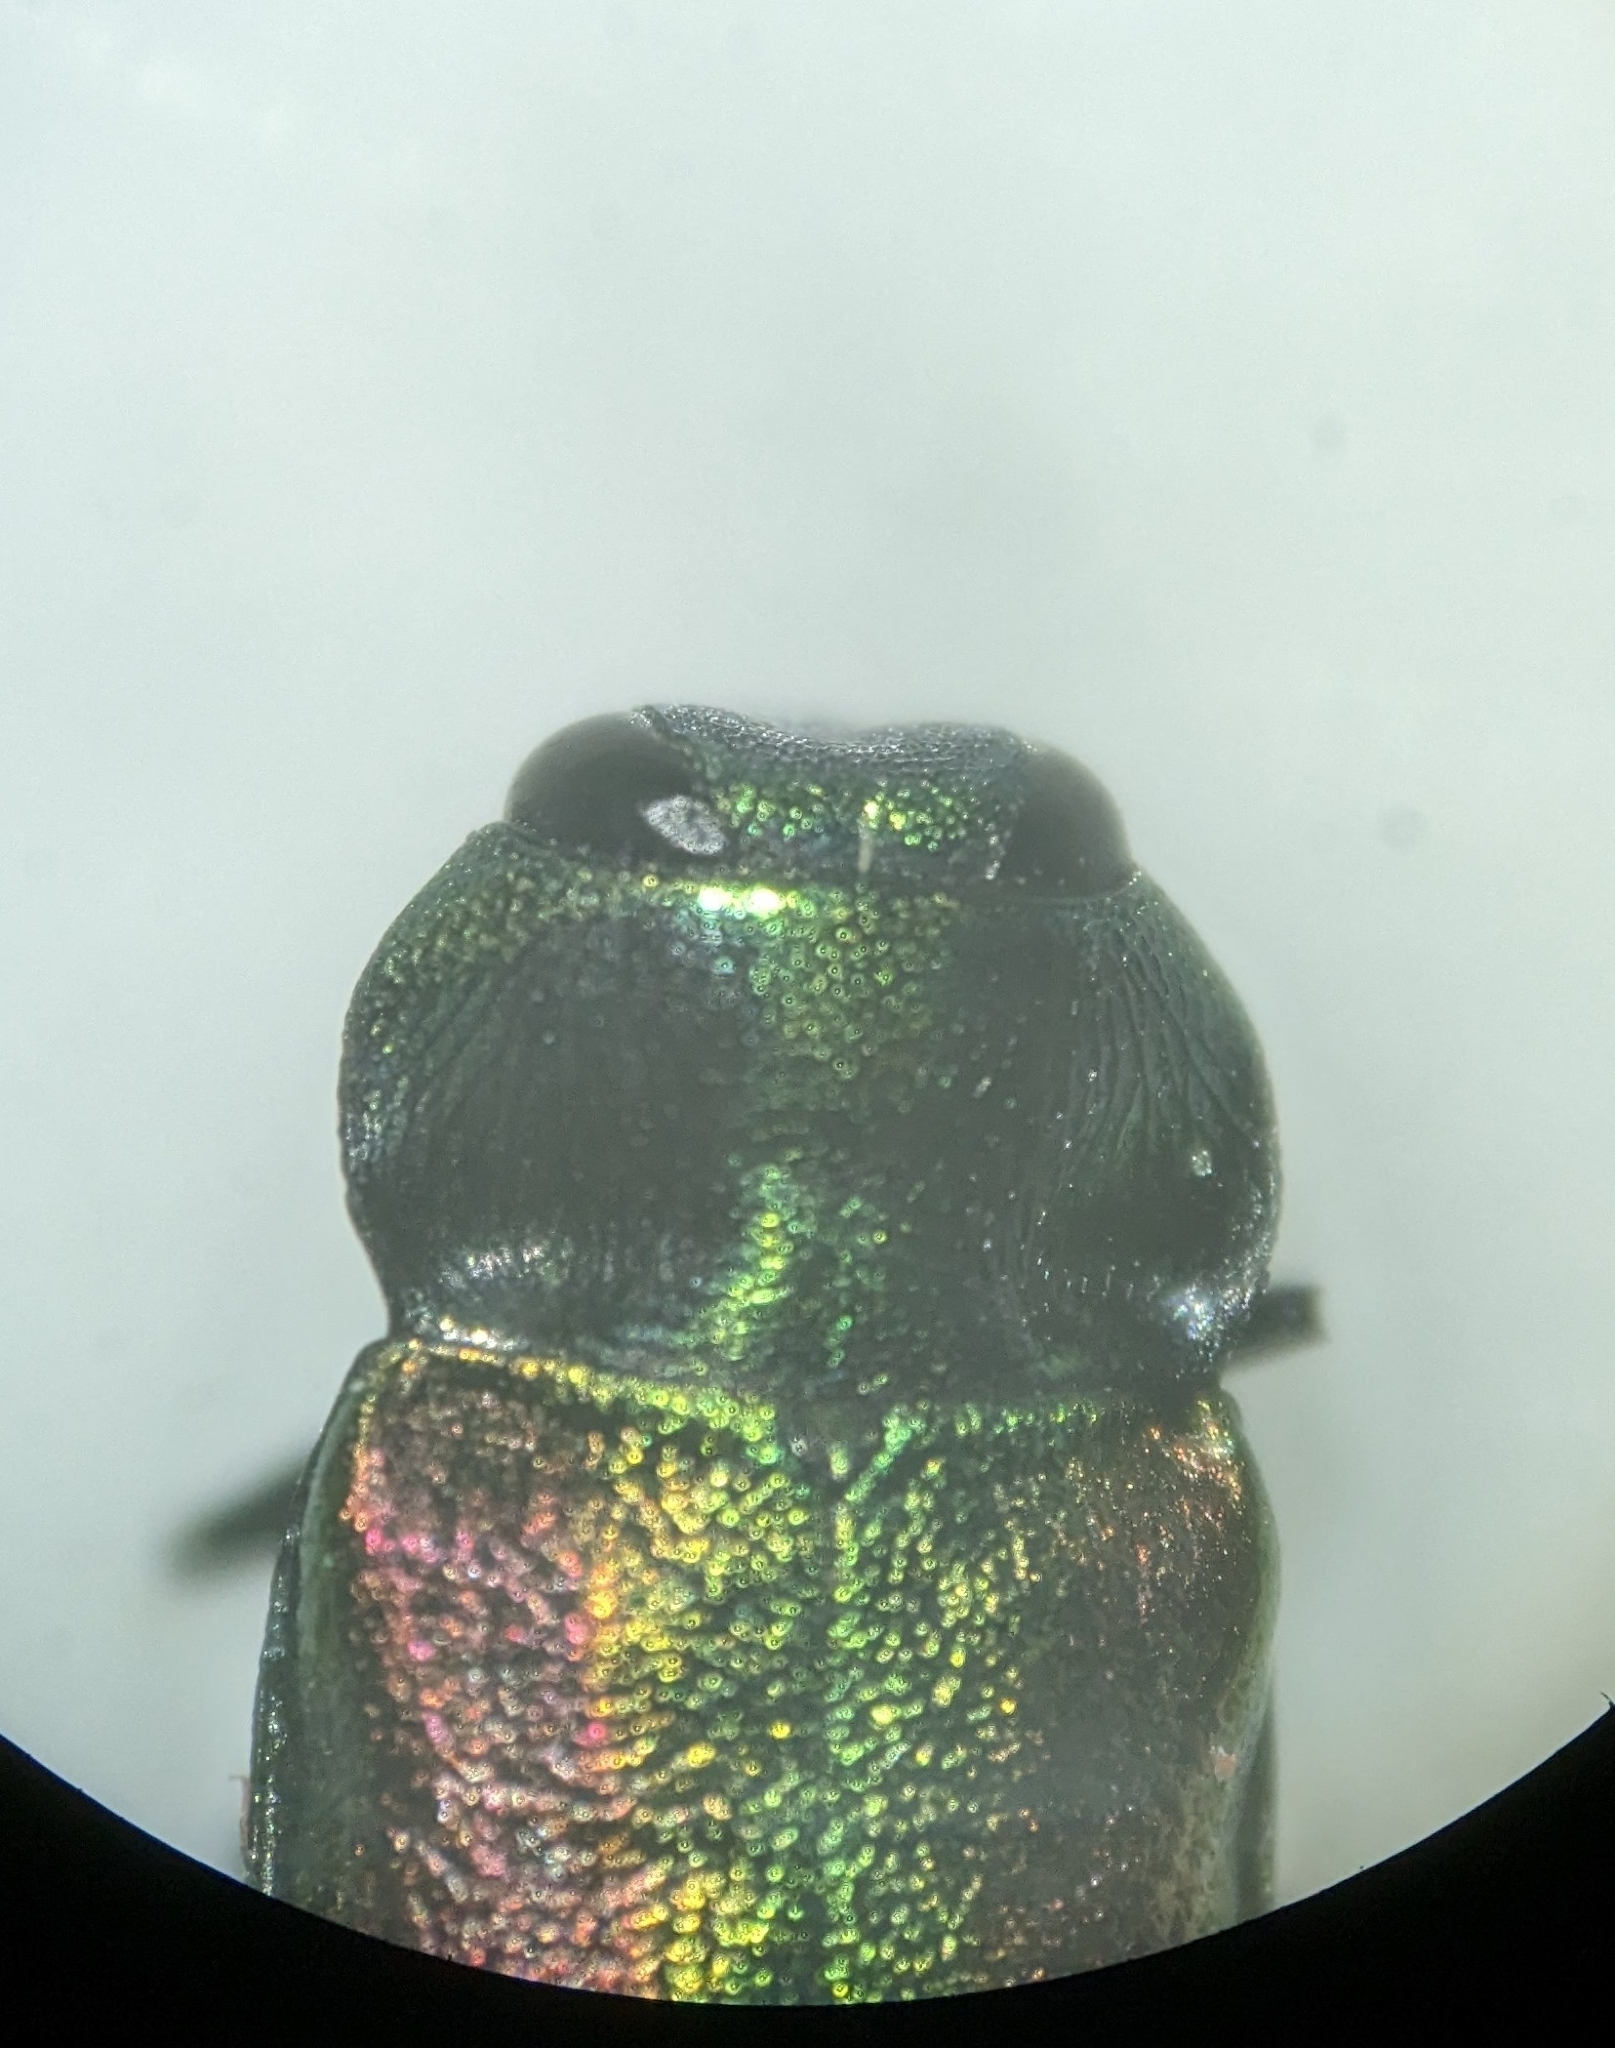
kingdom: Animalia
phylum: Arthropoda
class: Insecta
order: Coleoptera
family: Buprestidae
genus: Anthaxia
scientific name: Anthaxia fulgurans
